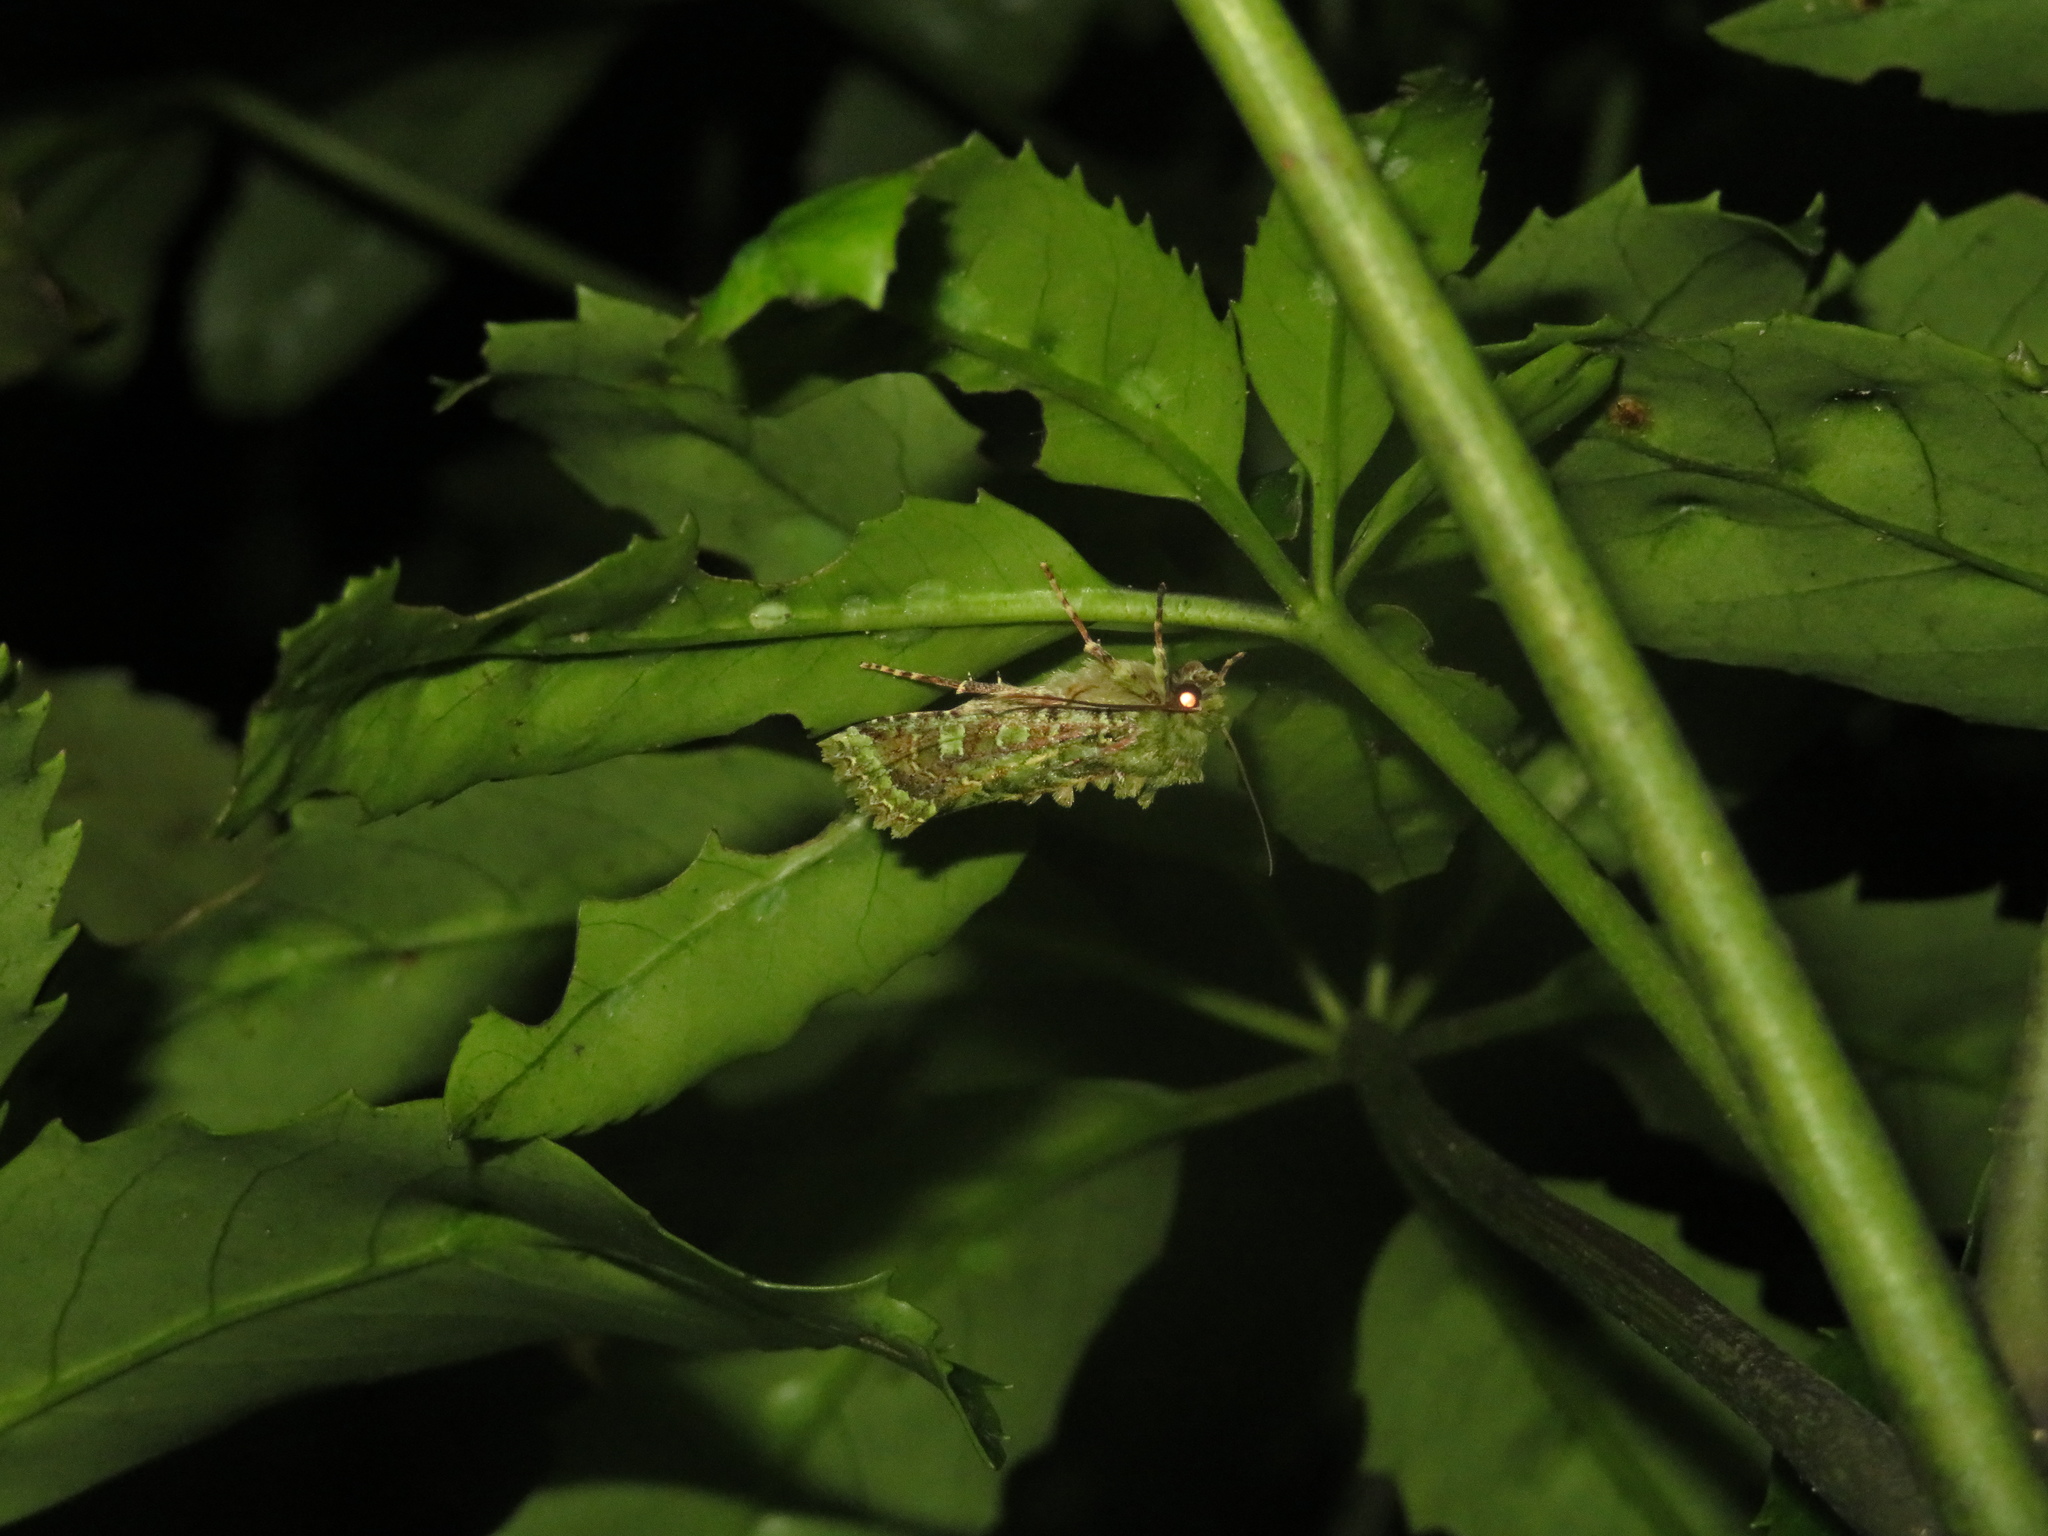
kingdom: Animalia
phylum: Arthropoda
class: Insecta
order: Lepidoptera
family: Noctuidae
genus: Feredayia
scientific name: Feredayia grammosa
